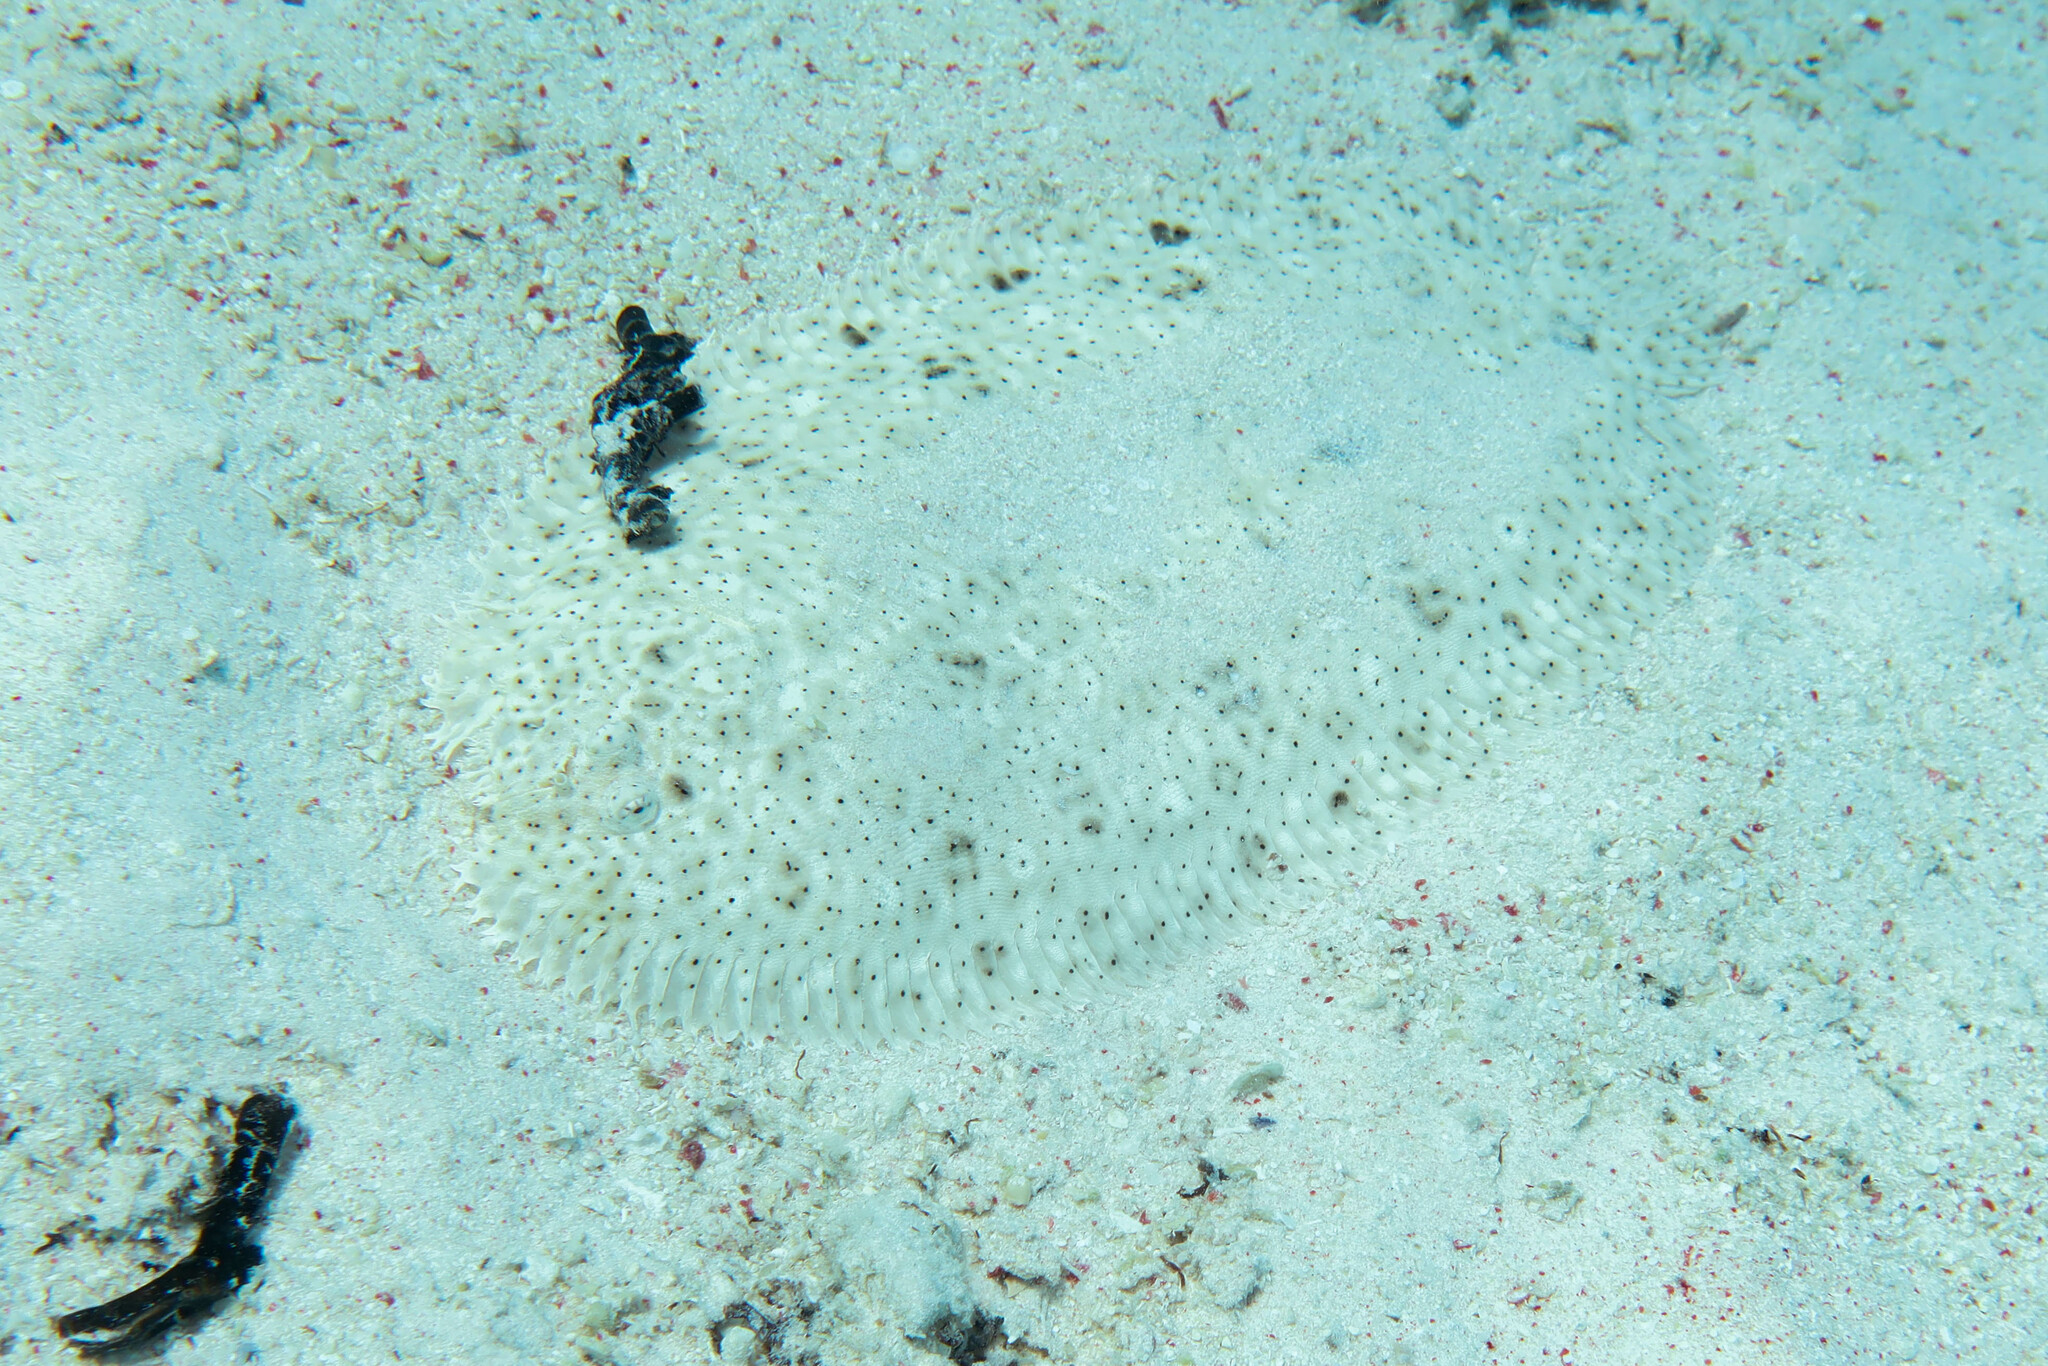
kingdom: Animalia
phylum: Chordata
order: Pleuronectiformes
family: Soleidae
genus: Pardachirus
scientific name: Pardachirus marmoratus
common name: Finless sole
